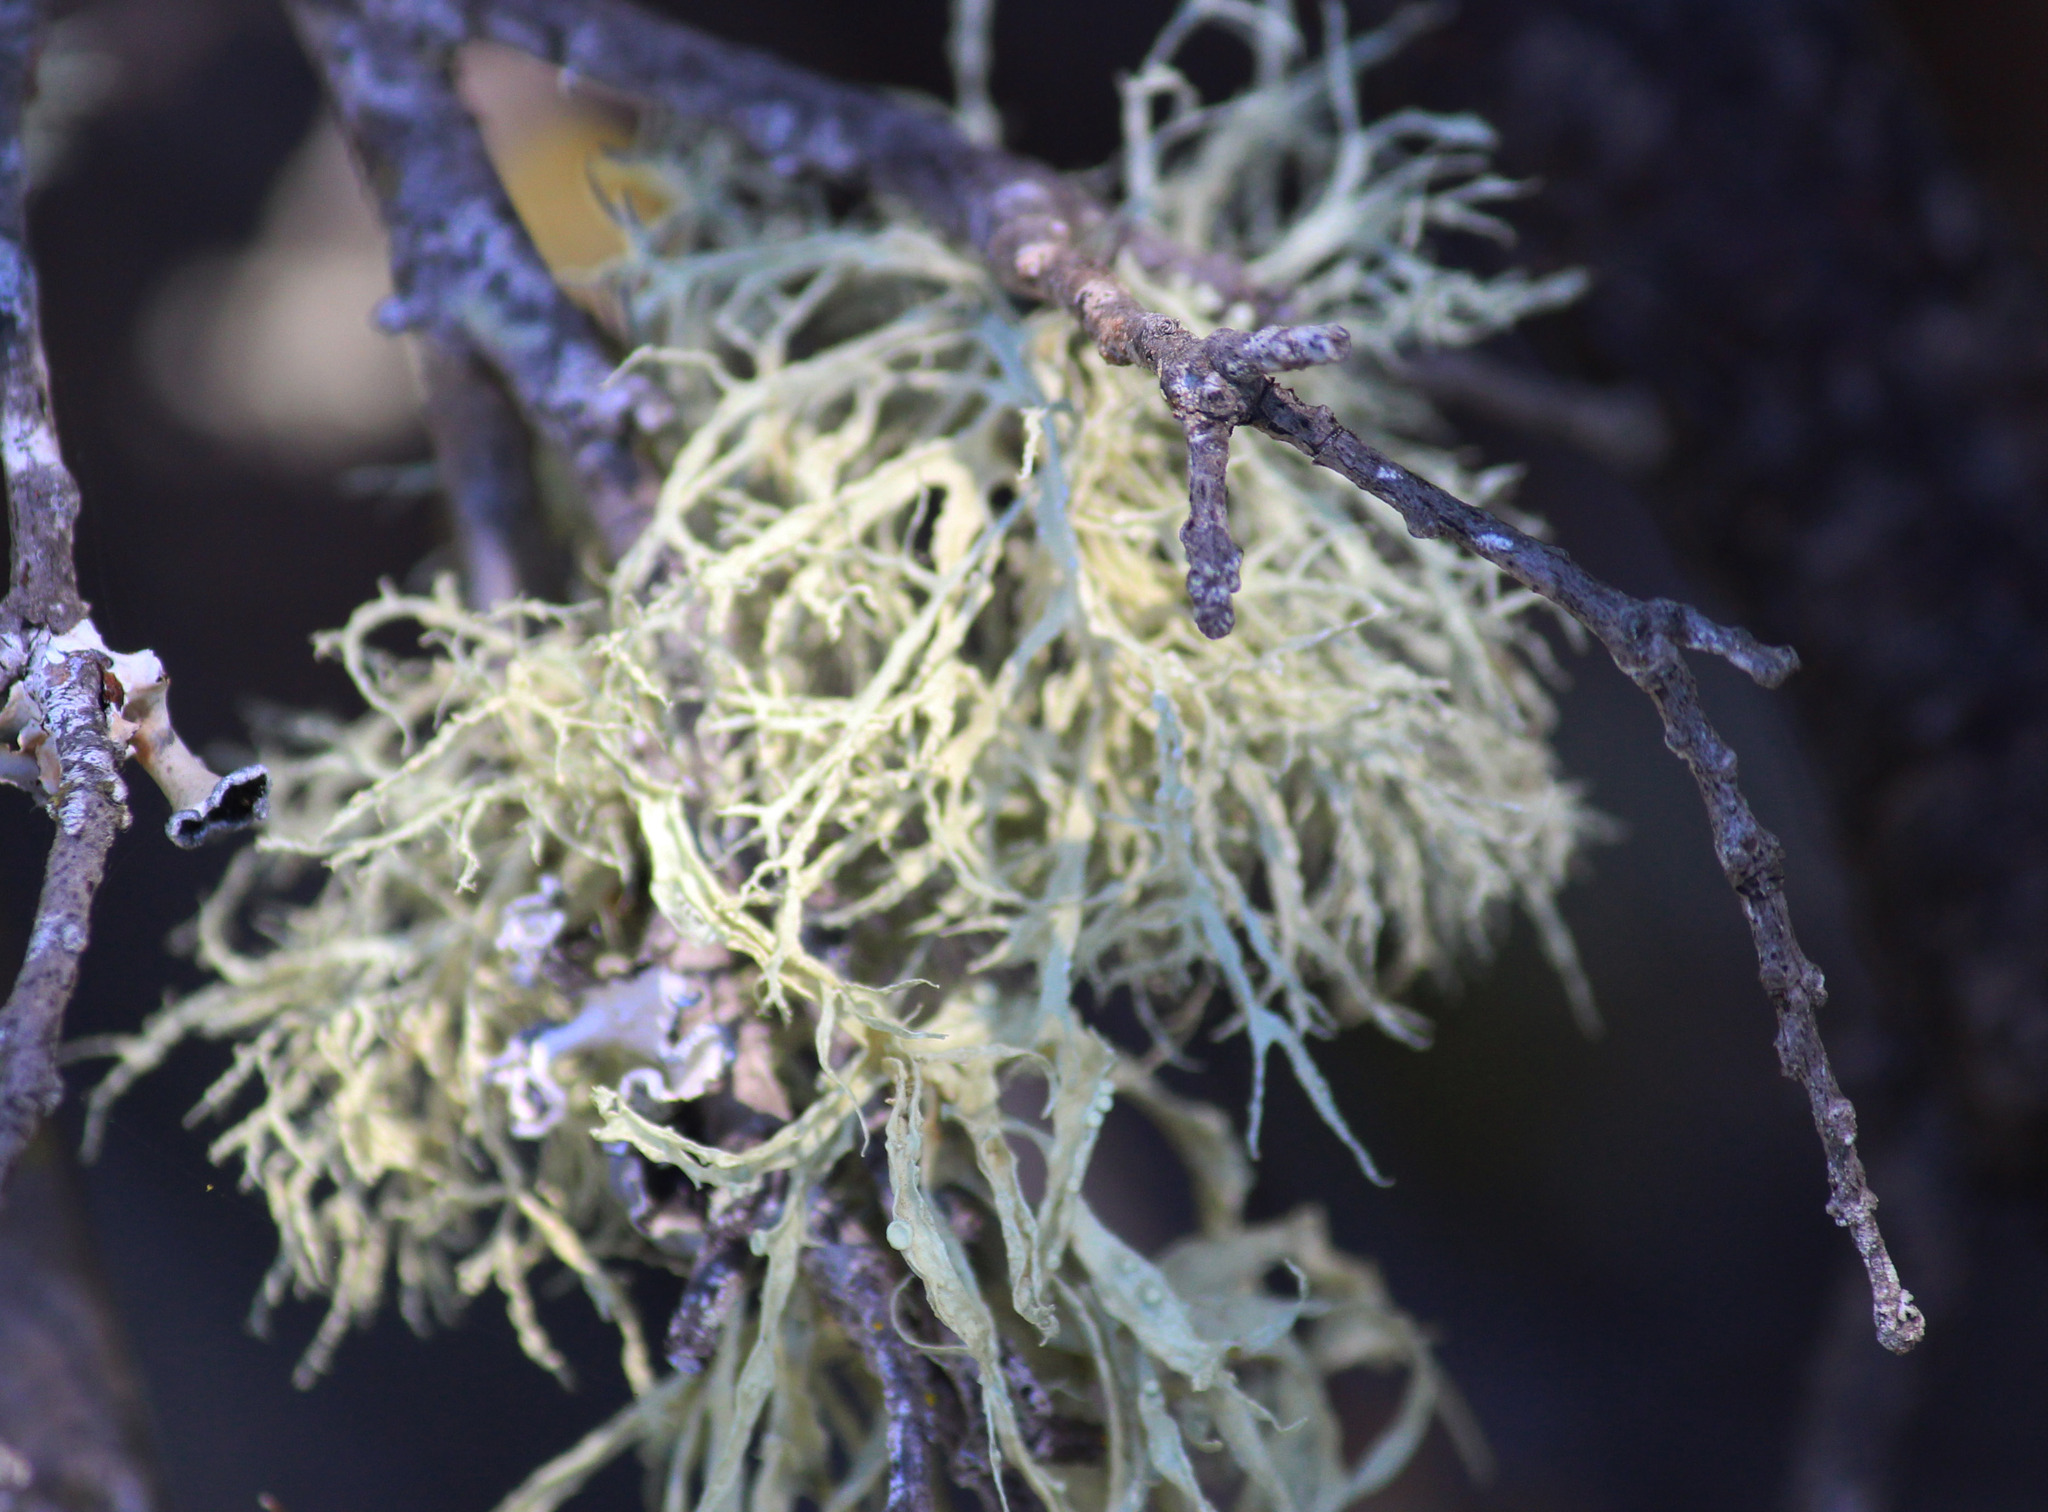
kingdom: Fungi
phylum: Ascomycota
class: Lecanoromycetes
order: Lecanorales
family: Ramalinaceae
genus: Ramalina
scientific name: Ramalina farinacea
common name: Farinose cartilage lichen
